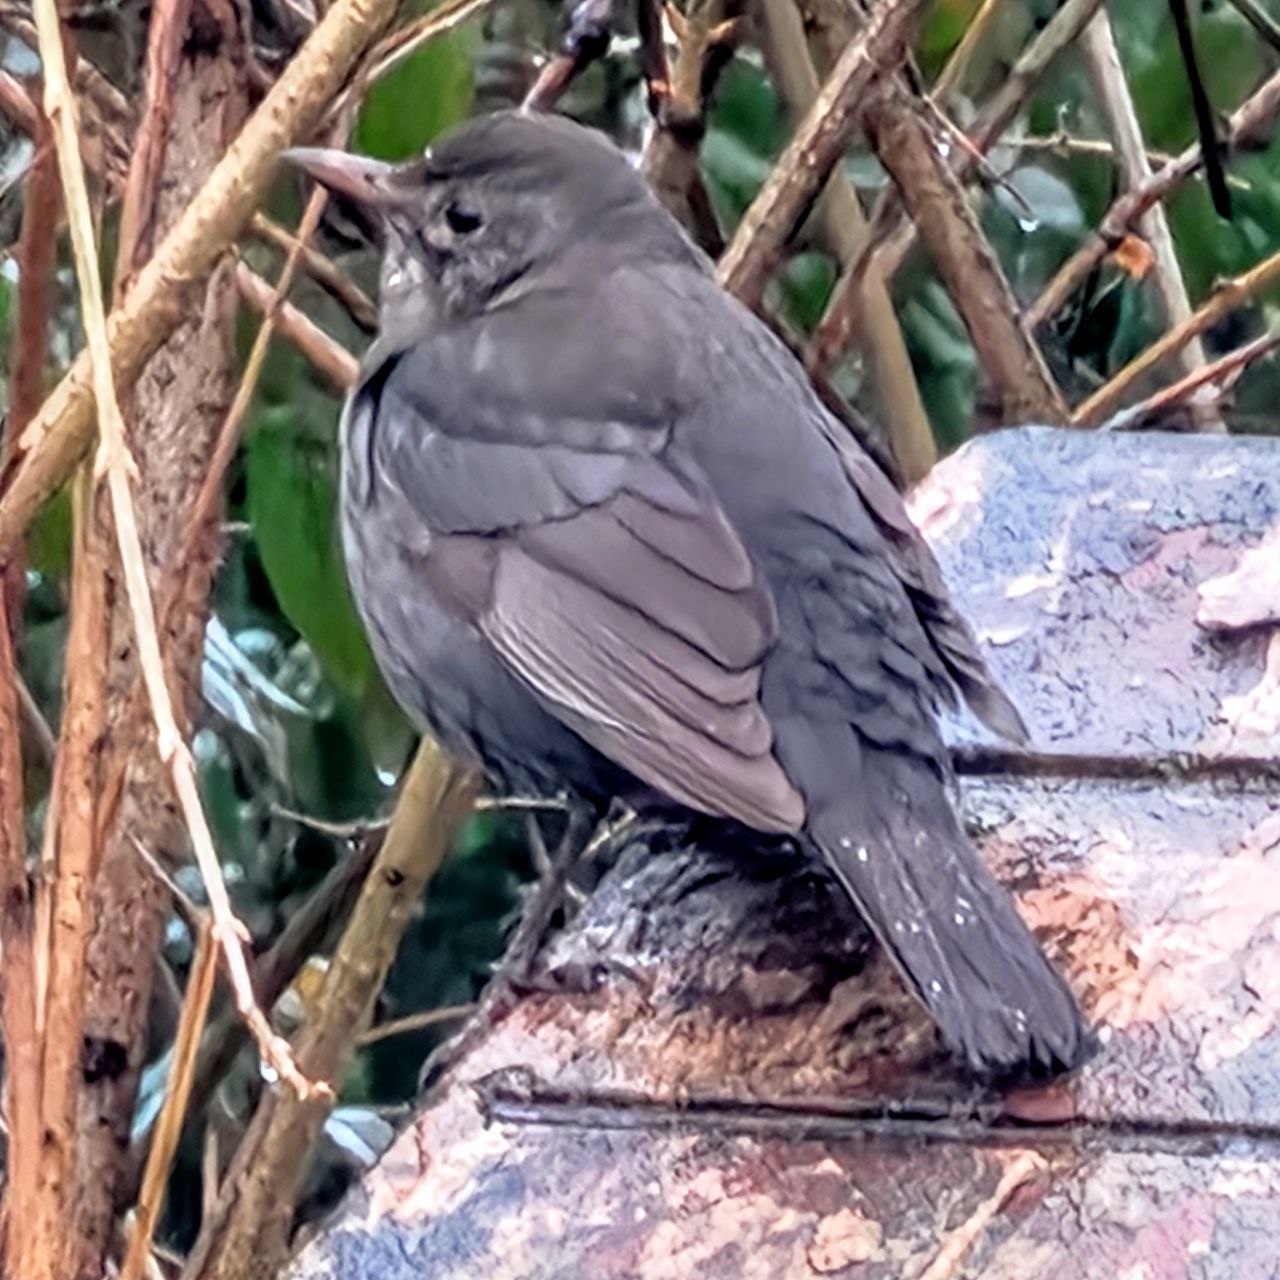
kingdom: Animalia
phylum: Chordata
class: Aves
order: Passeriformes
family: Turdidae
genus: Turdus
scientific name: Turdus merula
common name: Common blackbird
